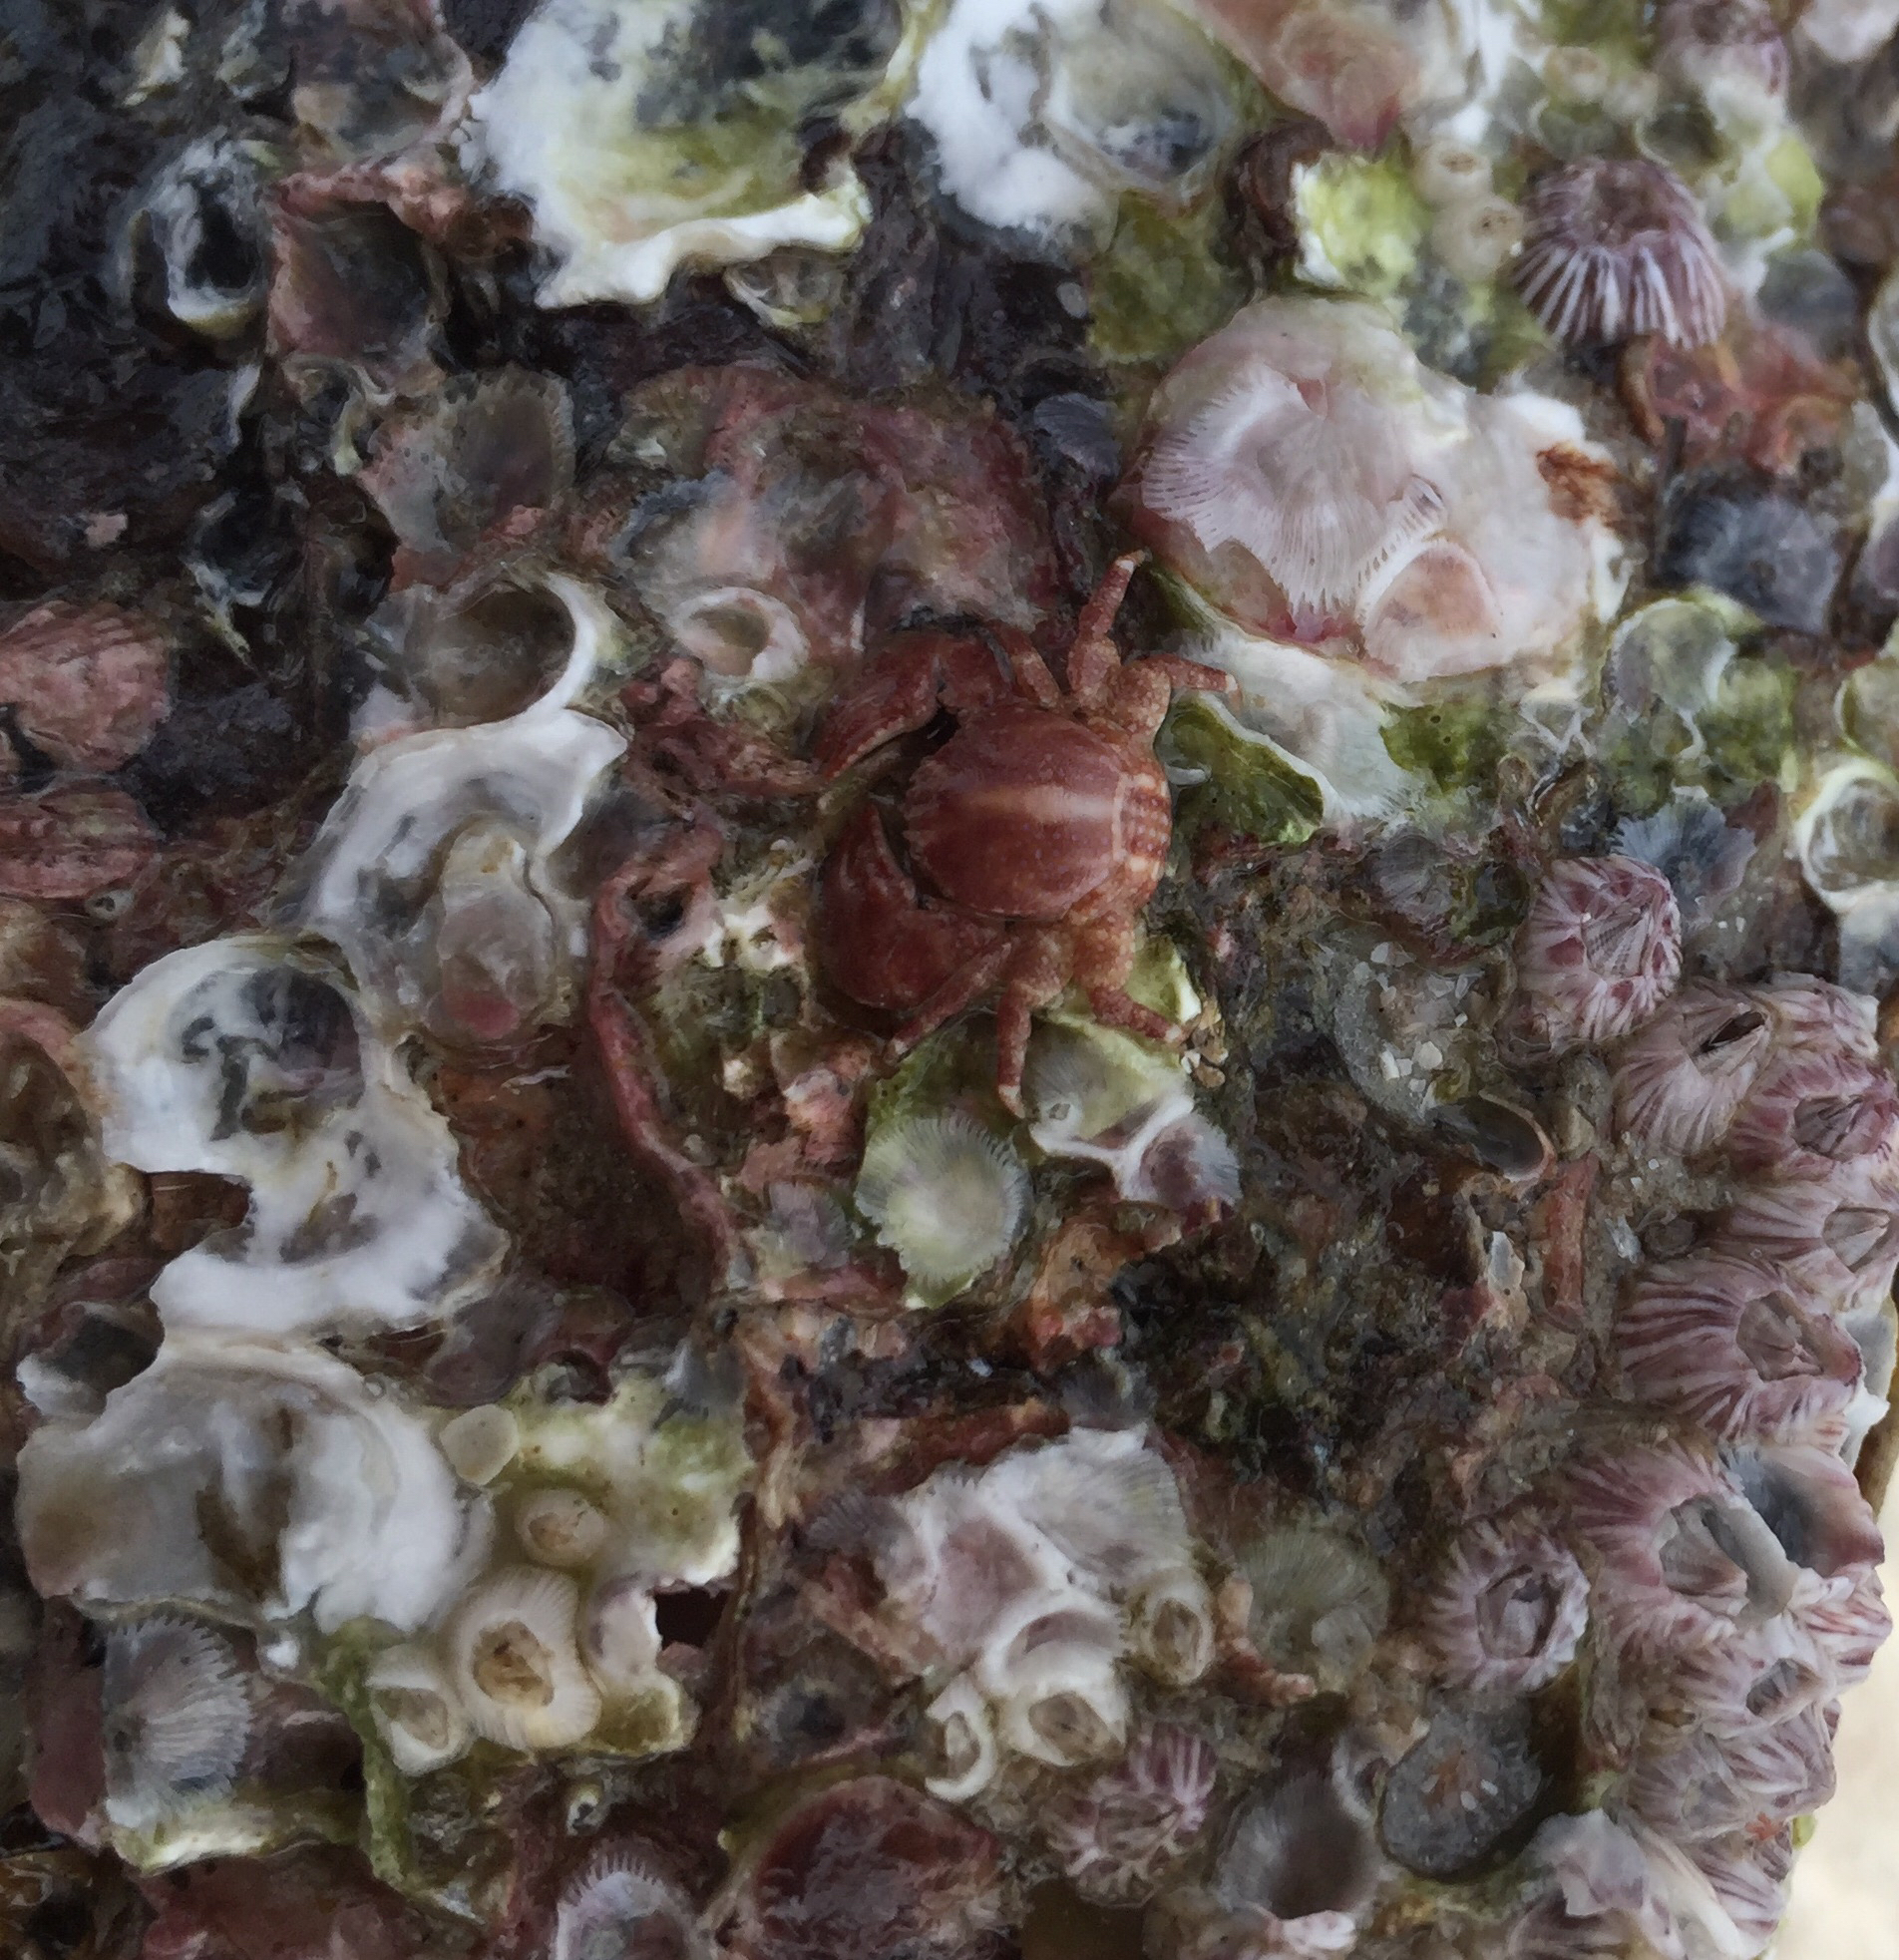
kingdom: Animalia
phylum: Arthropoda
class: Malacostraca
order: Decapoda
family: Porcellanidae
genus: Porcellana
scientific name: Porcellana sayana
